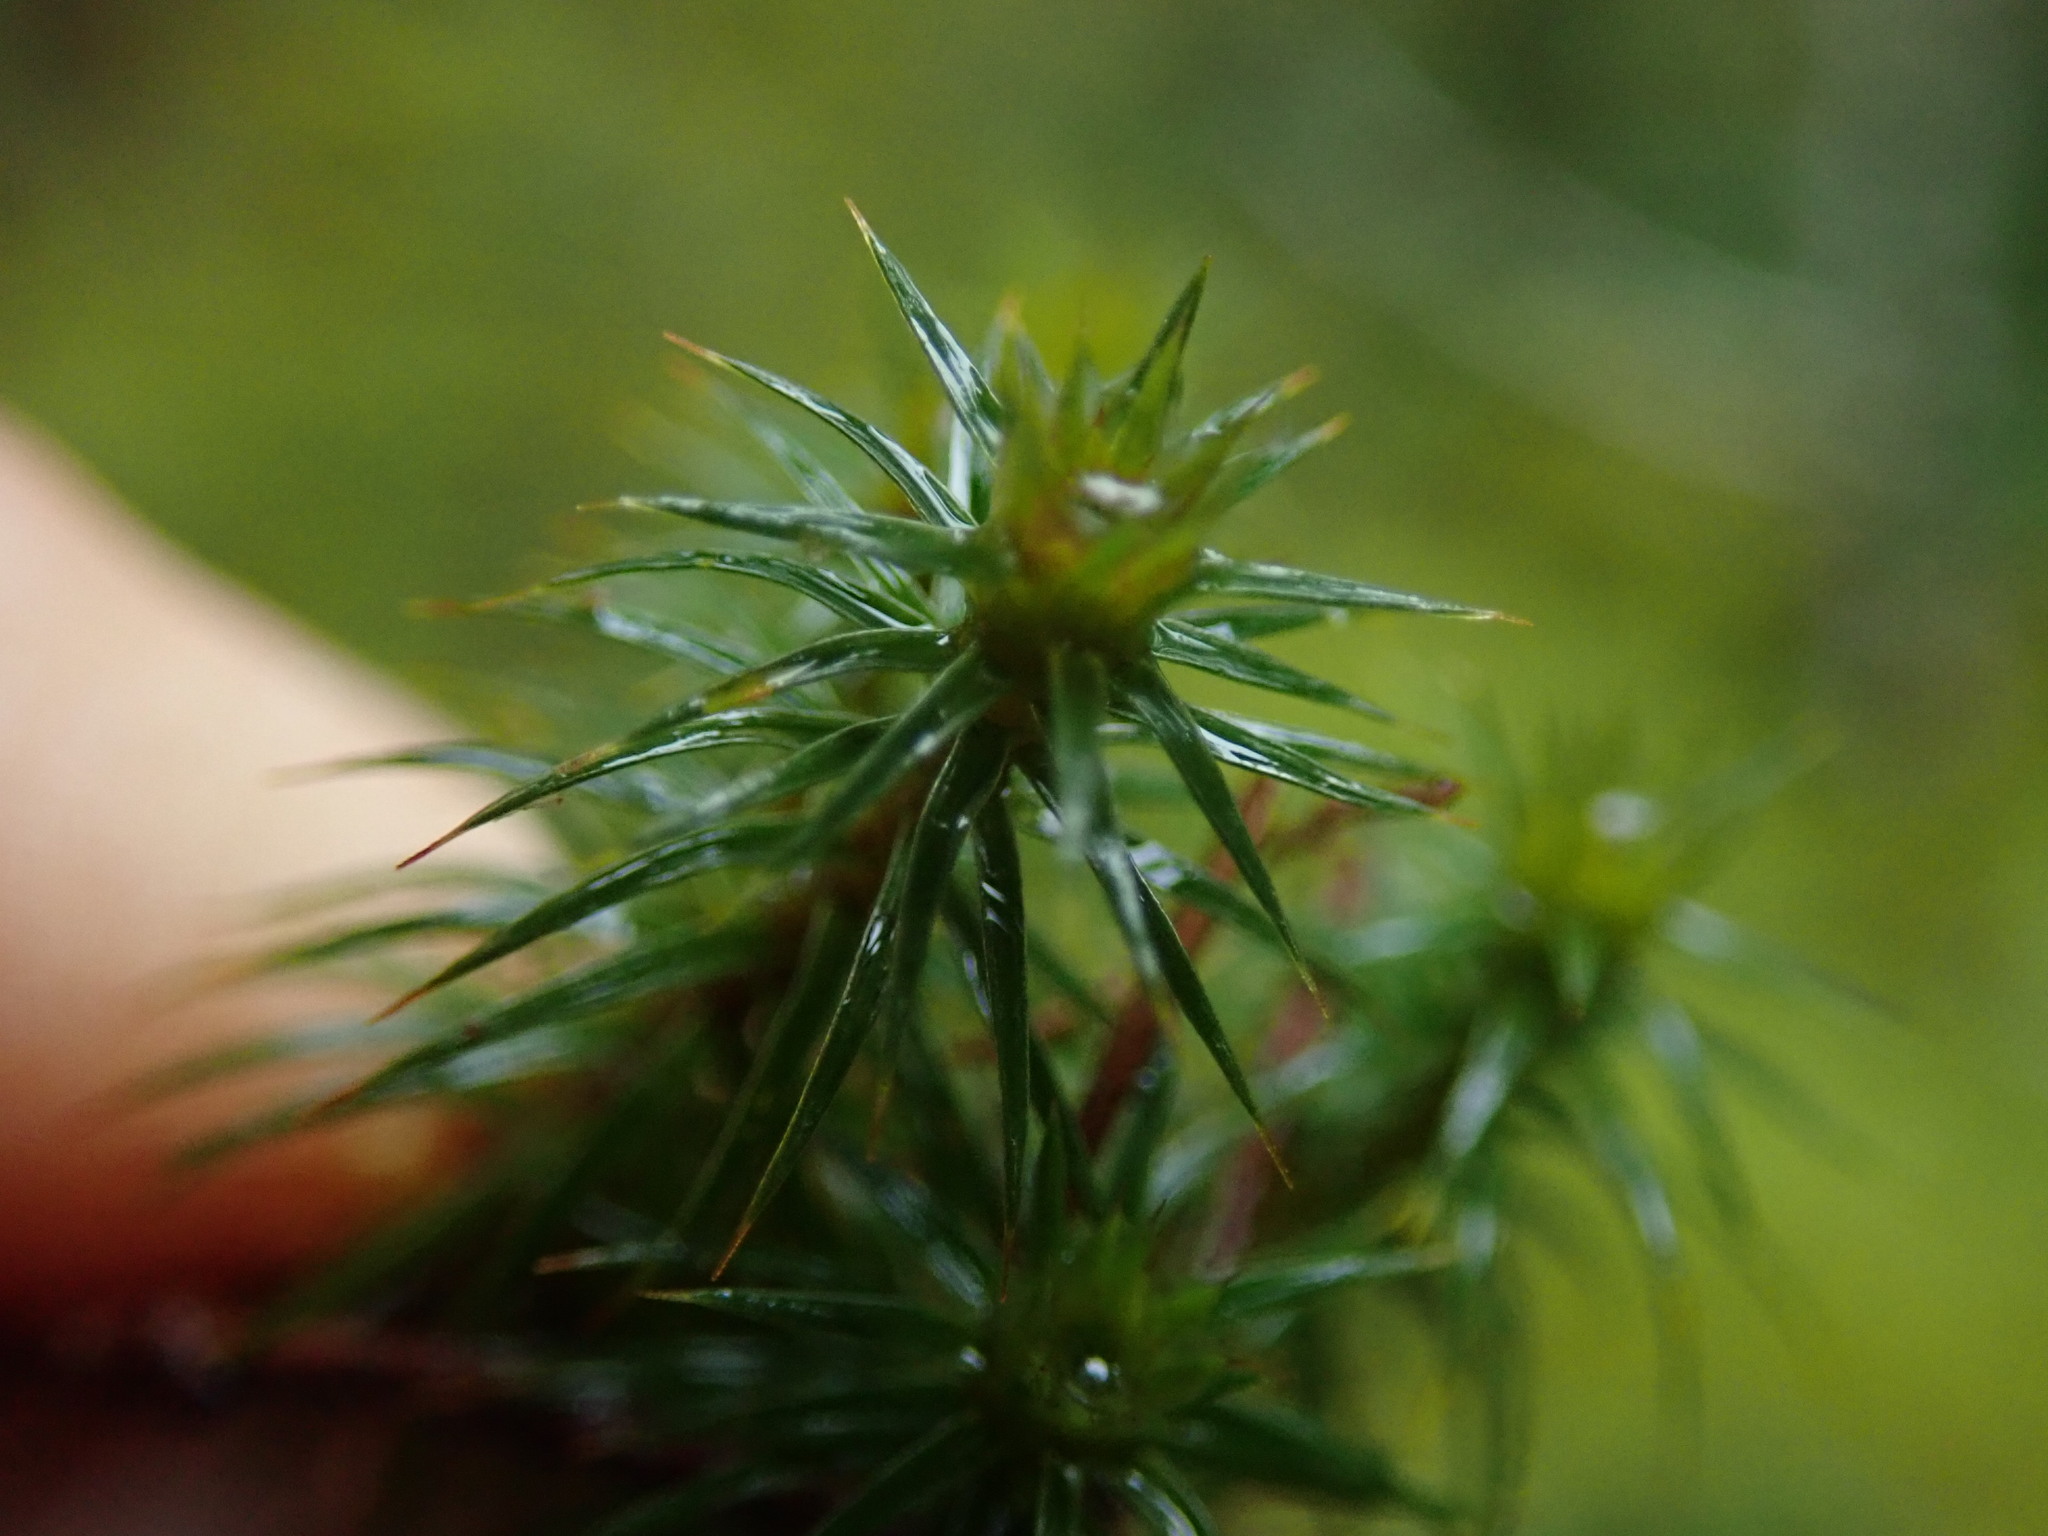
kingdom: Plantae
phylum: Bryophyta
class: Polytrichopsida
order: Polytrichales
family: Polytrichaceae
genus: Polytrichum
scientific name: Polytrichum juniperinum
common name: Juniper haircap moss
